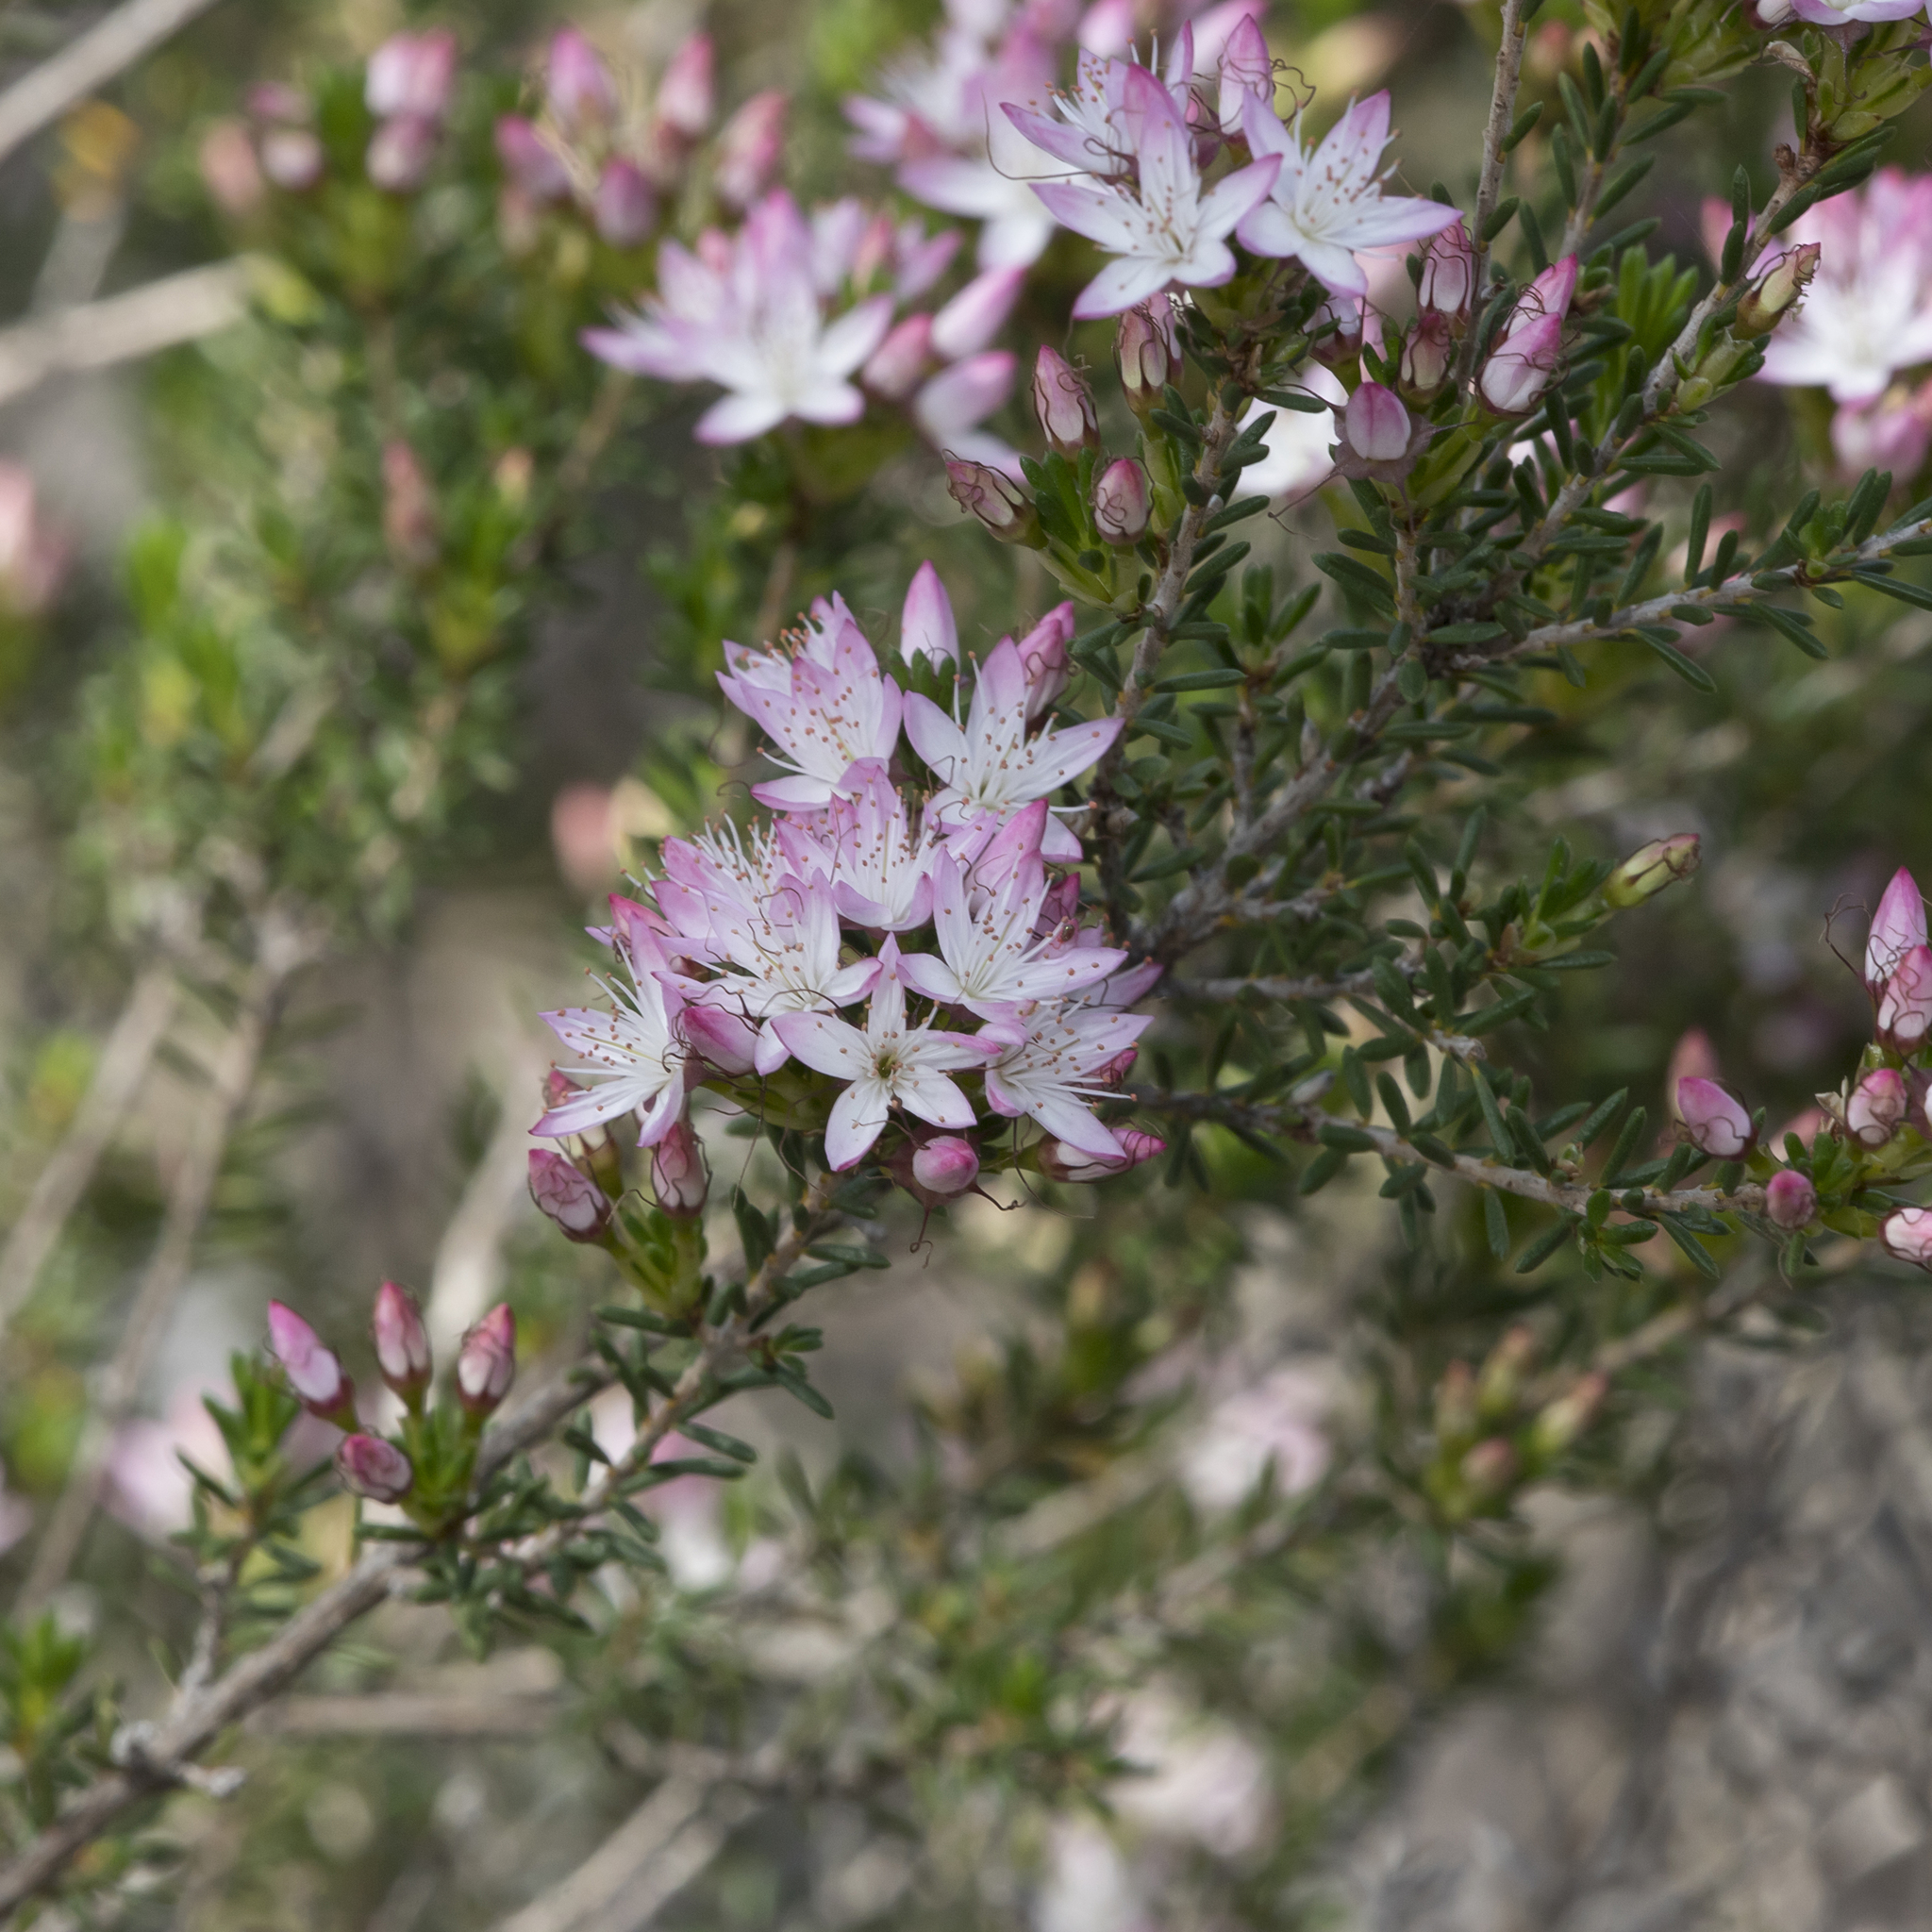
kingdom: Plantae
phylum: Tracheophyta
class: Magnoliopsida
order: Myrtales
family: Myrtaceae
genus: Calytrix
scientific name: Calytrix tetragona
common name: Common fringe myrtle
